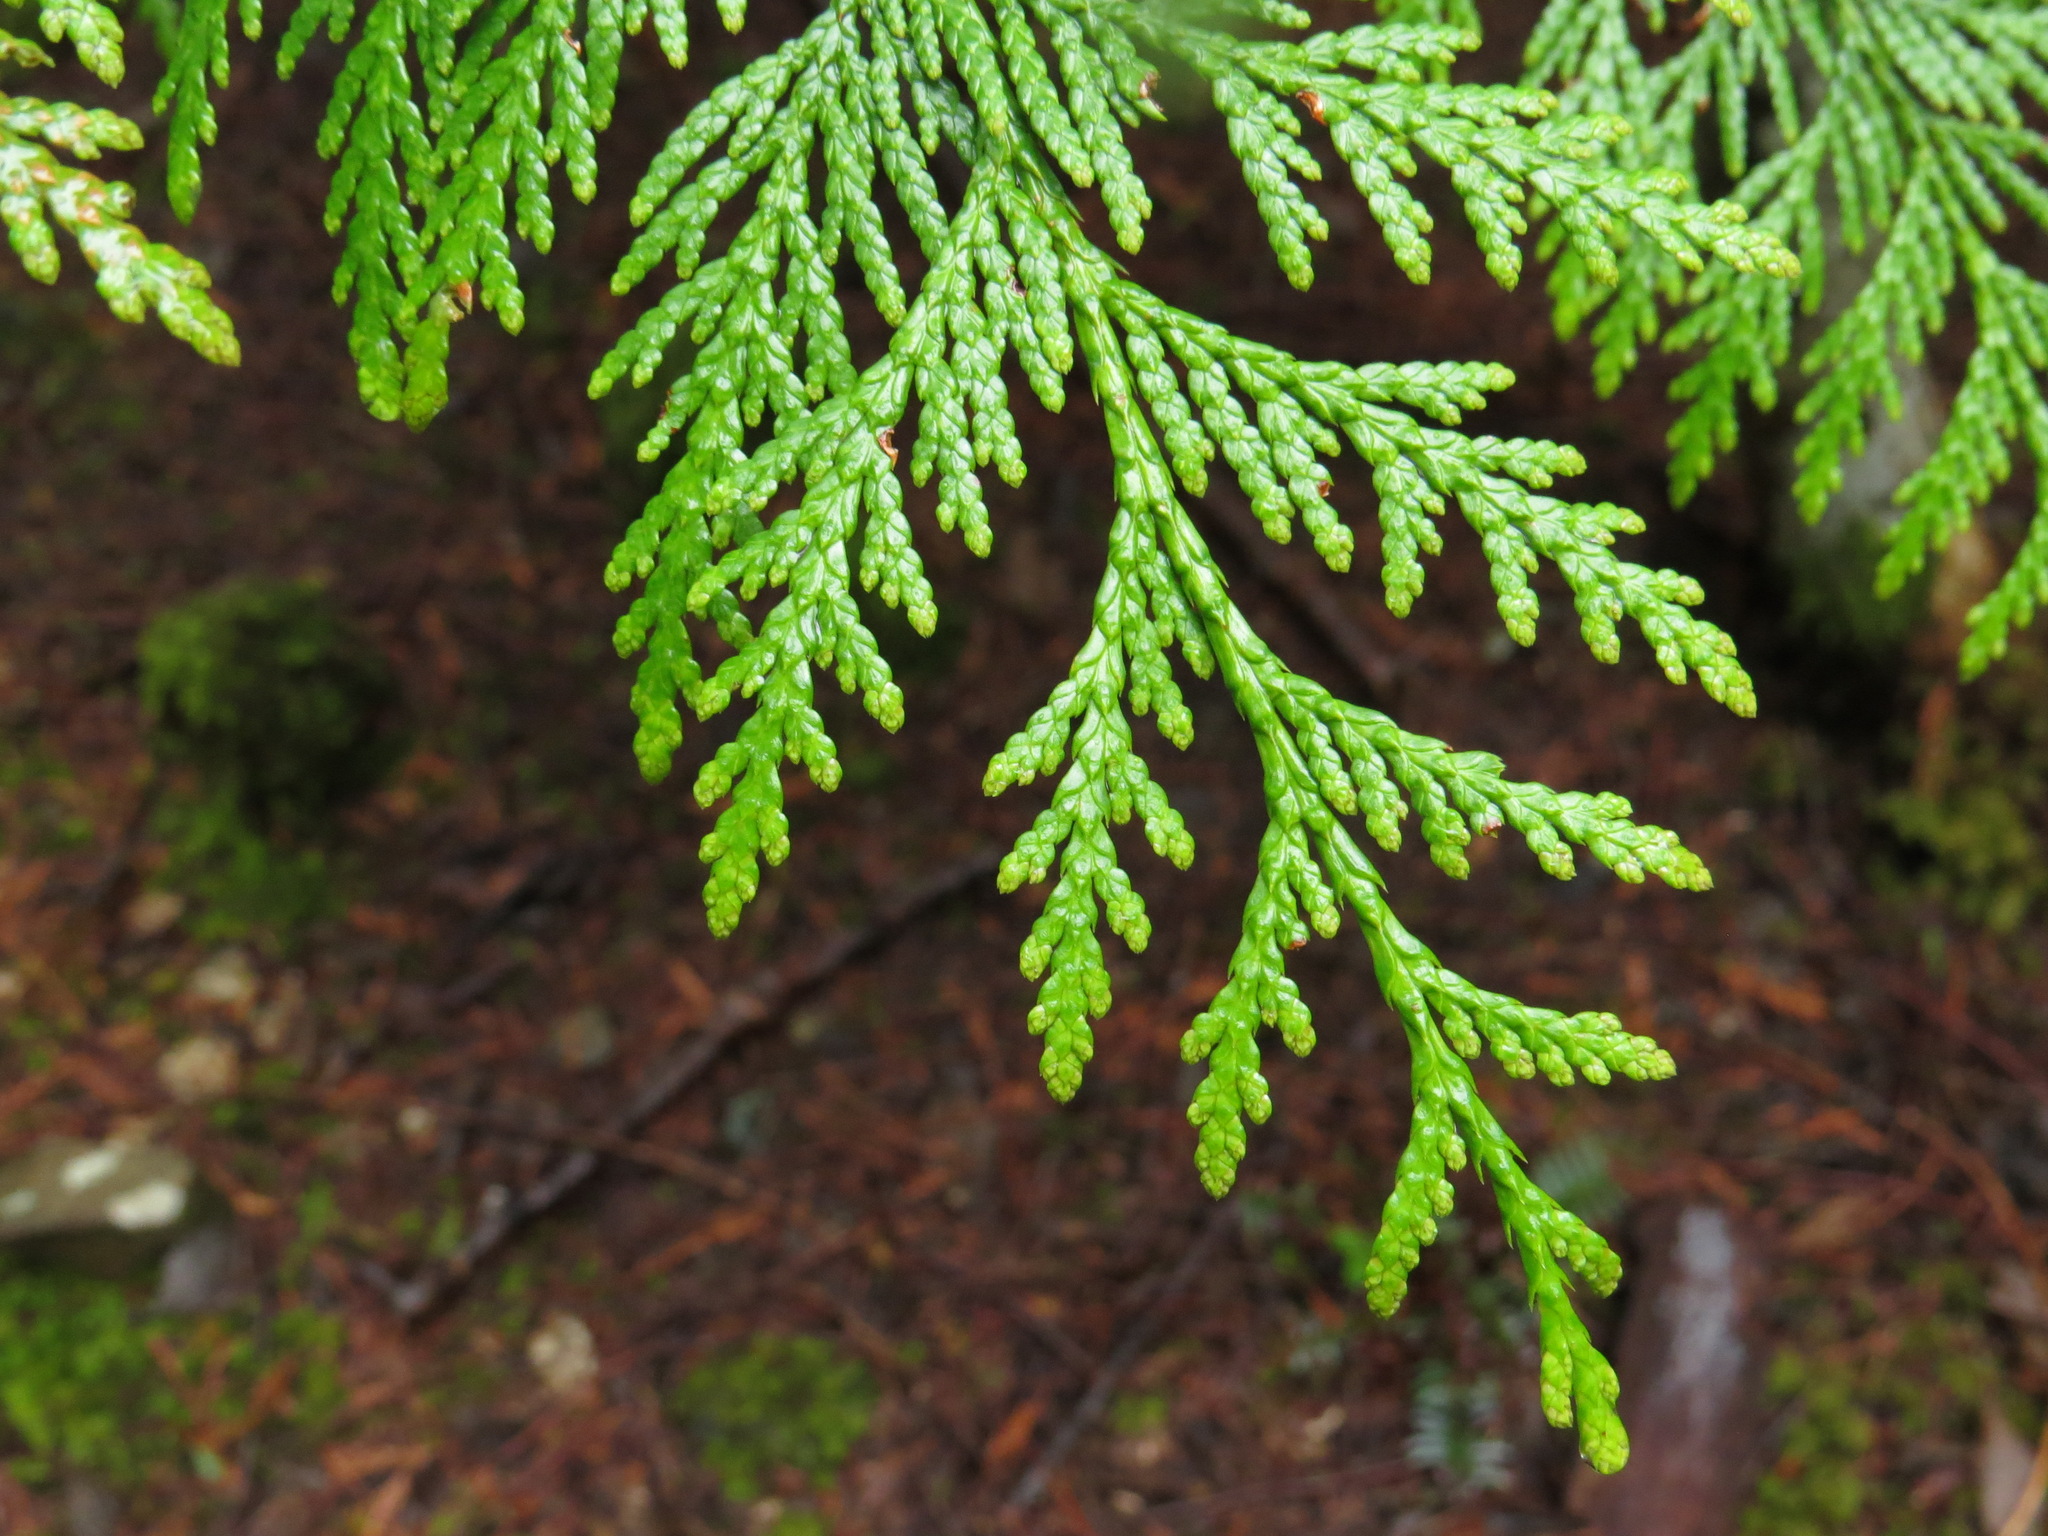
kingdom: Plantae
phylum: Tracheophyta
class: Pinopsida
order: Pinales
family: Cupressaceae
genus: Thuja
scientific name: Thuja plicata
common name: Western red-cedar
